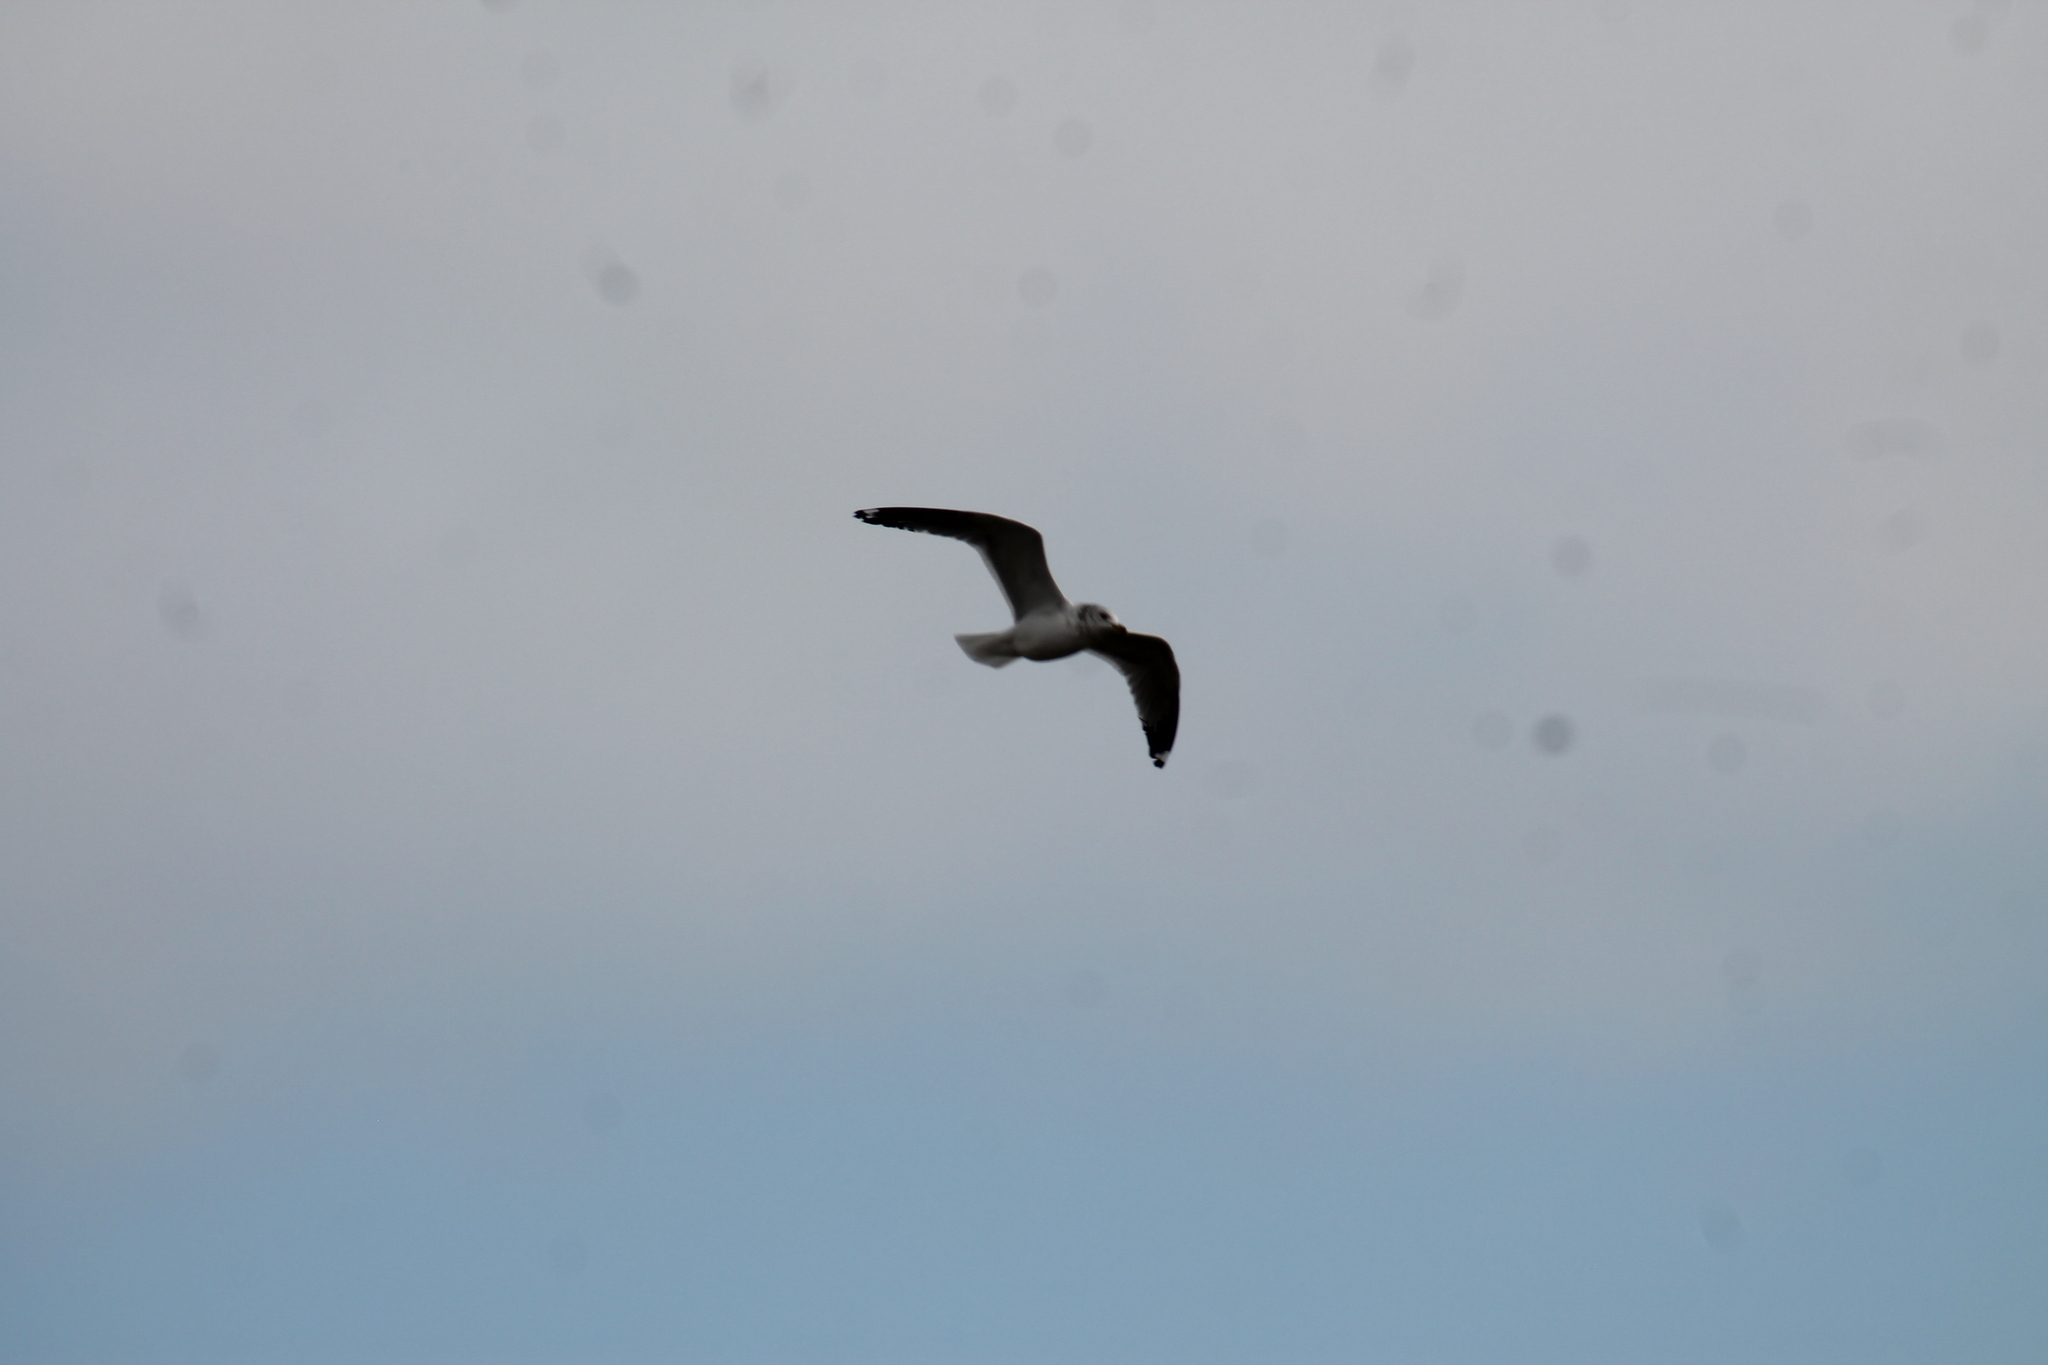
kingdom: Animalia
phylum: Chordata
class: Aves
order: Charadriiformes
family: Laridae
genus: Larus
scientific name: Larus delawarensis
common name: Ring-billed gull
